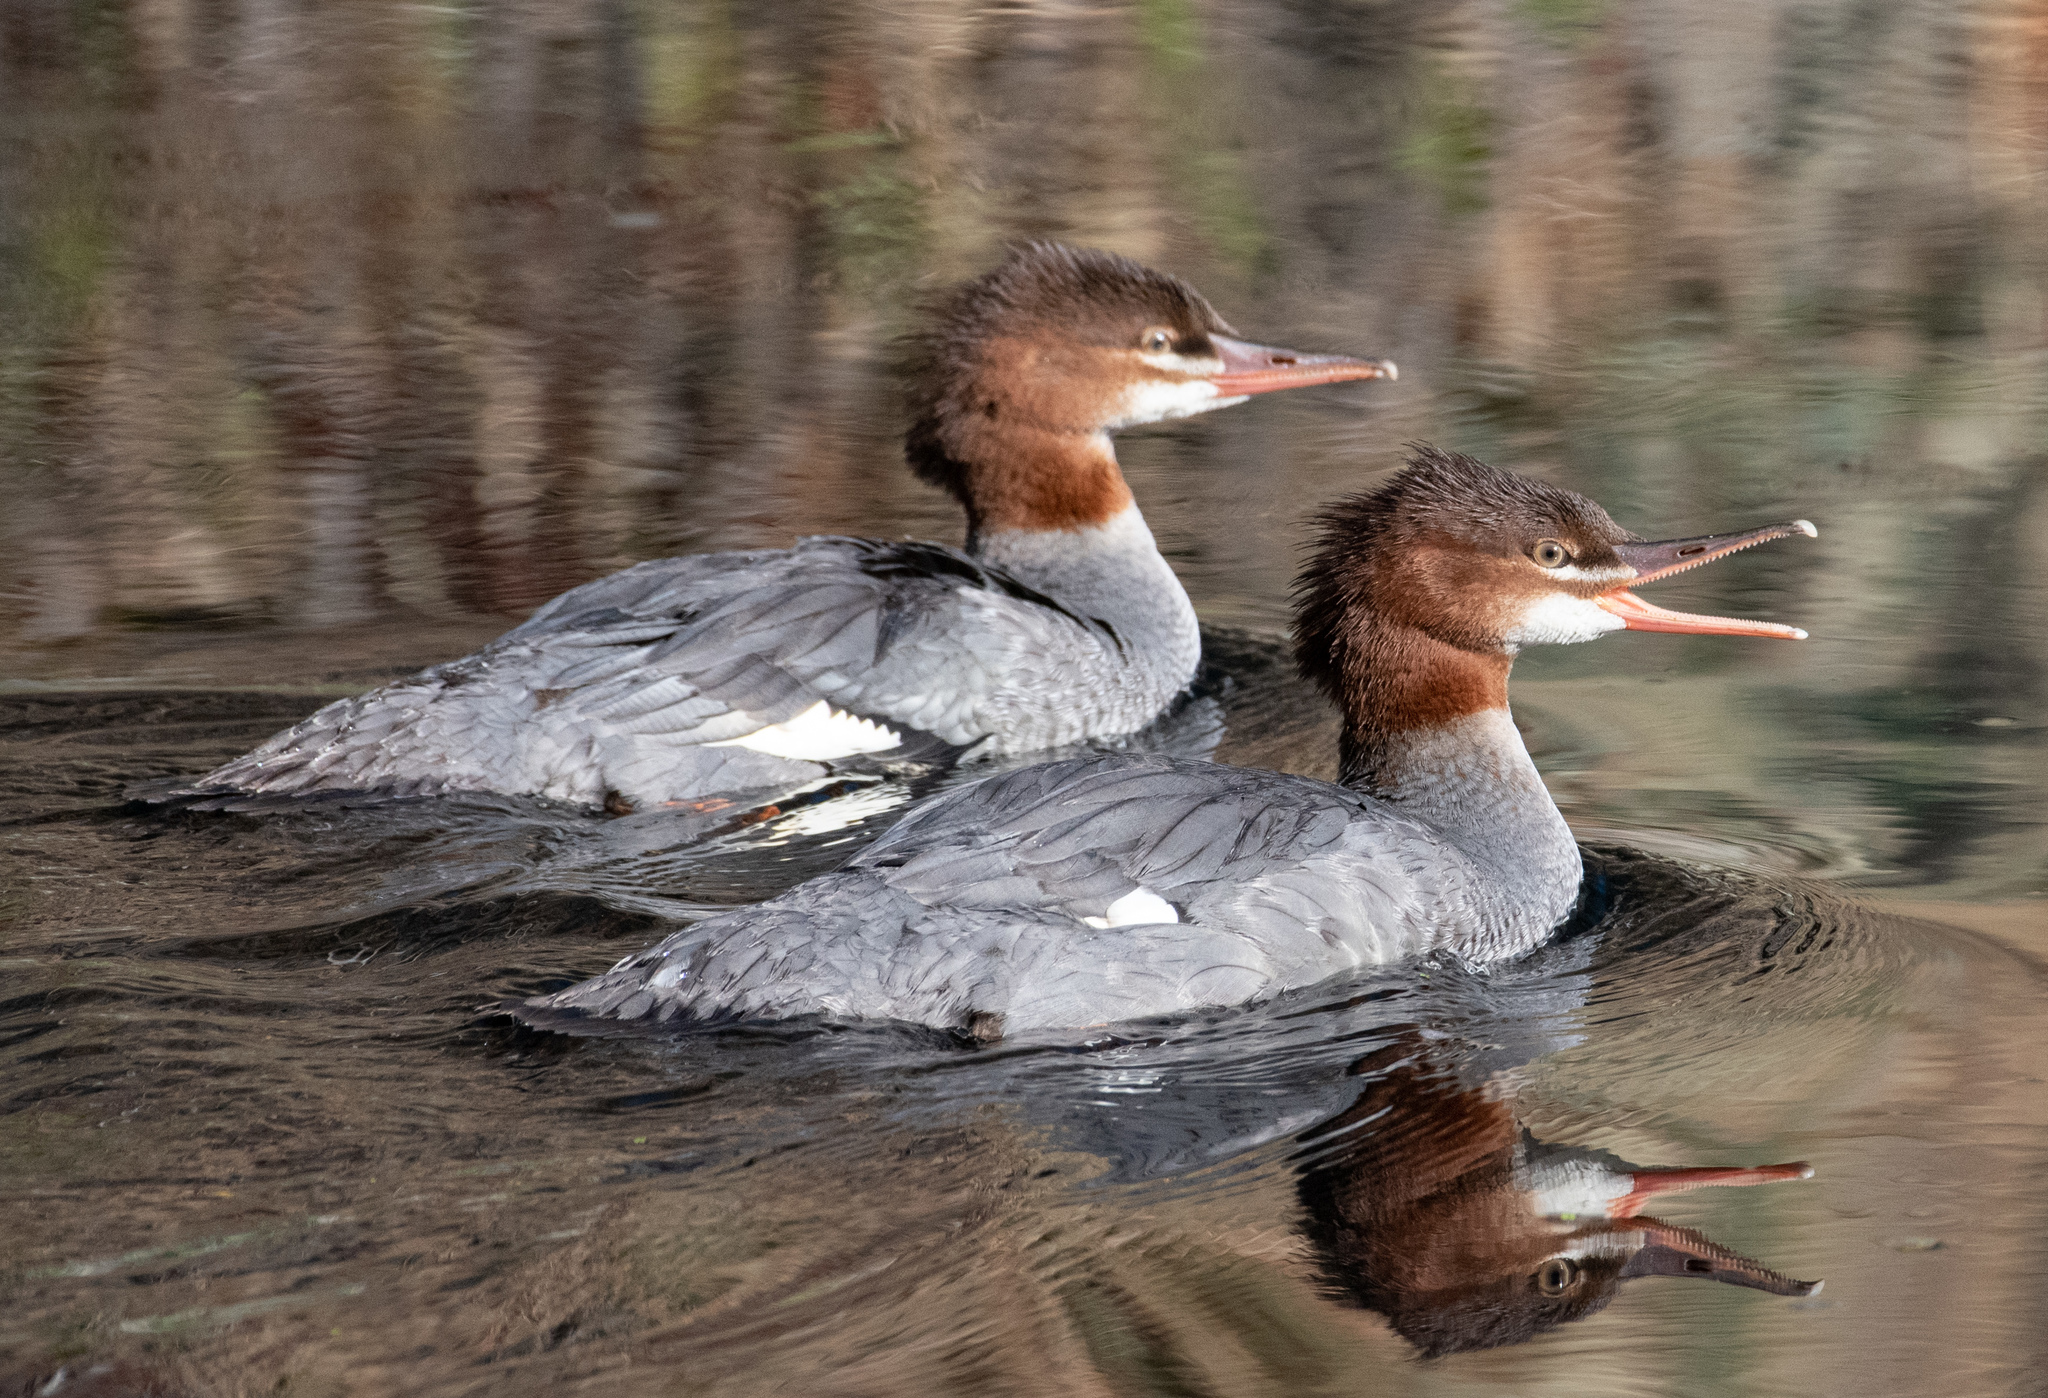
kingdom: Animalia
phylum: Chordata
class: Aves
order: Anseriformes
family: Anatidae
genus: Mergus
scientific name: Mergus merganser
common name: Common merganser
